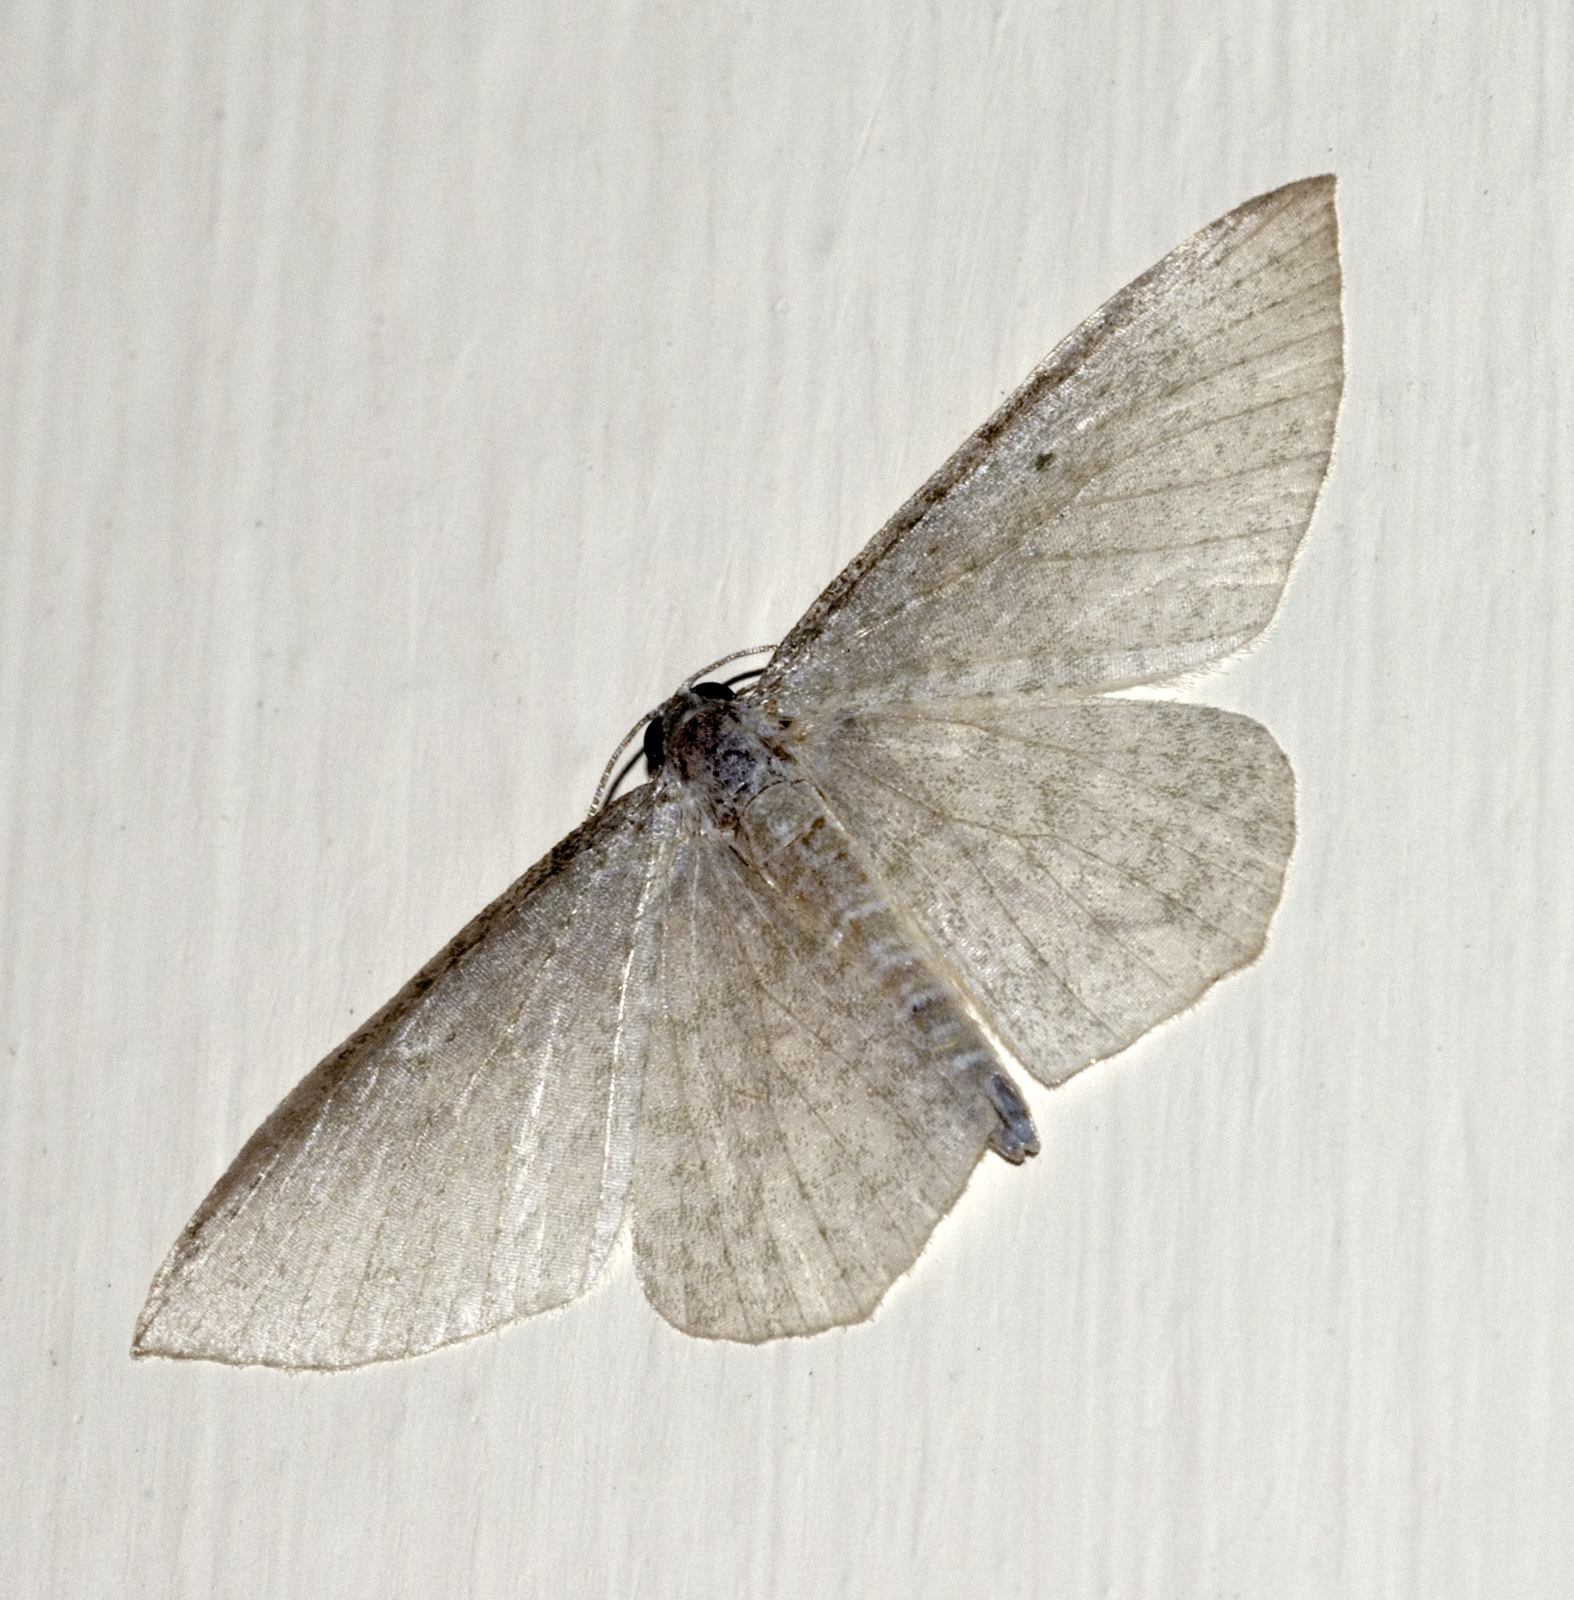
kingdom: Animalia
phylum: Arthropoda
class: Insecta
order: Lepidoptera
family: Geometridae
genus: Poecilasthena
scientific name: Poecilasthena pulchraria
